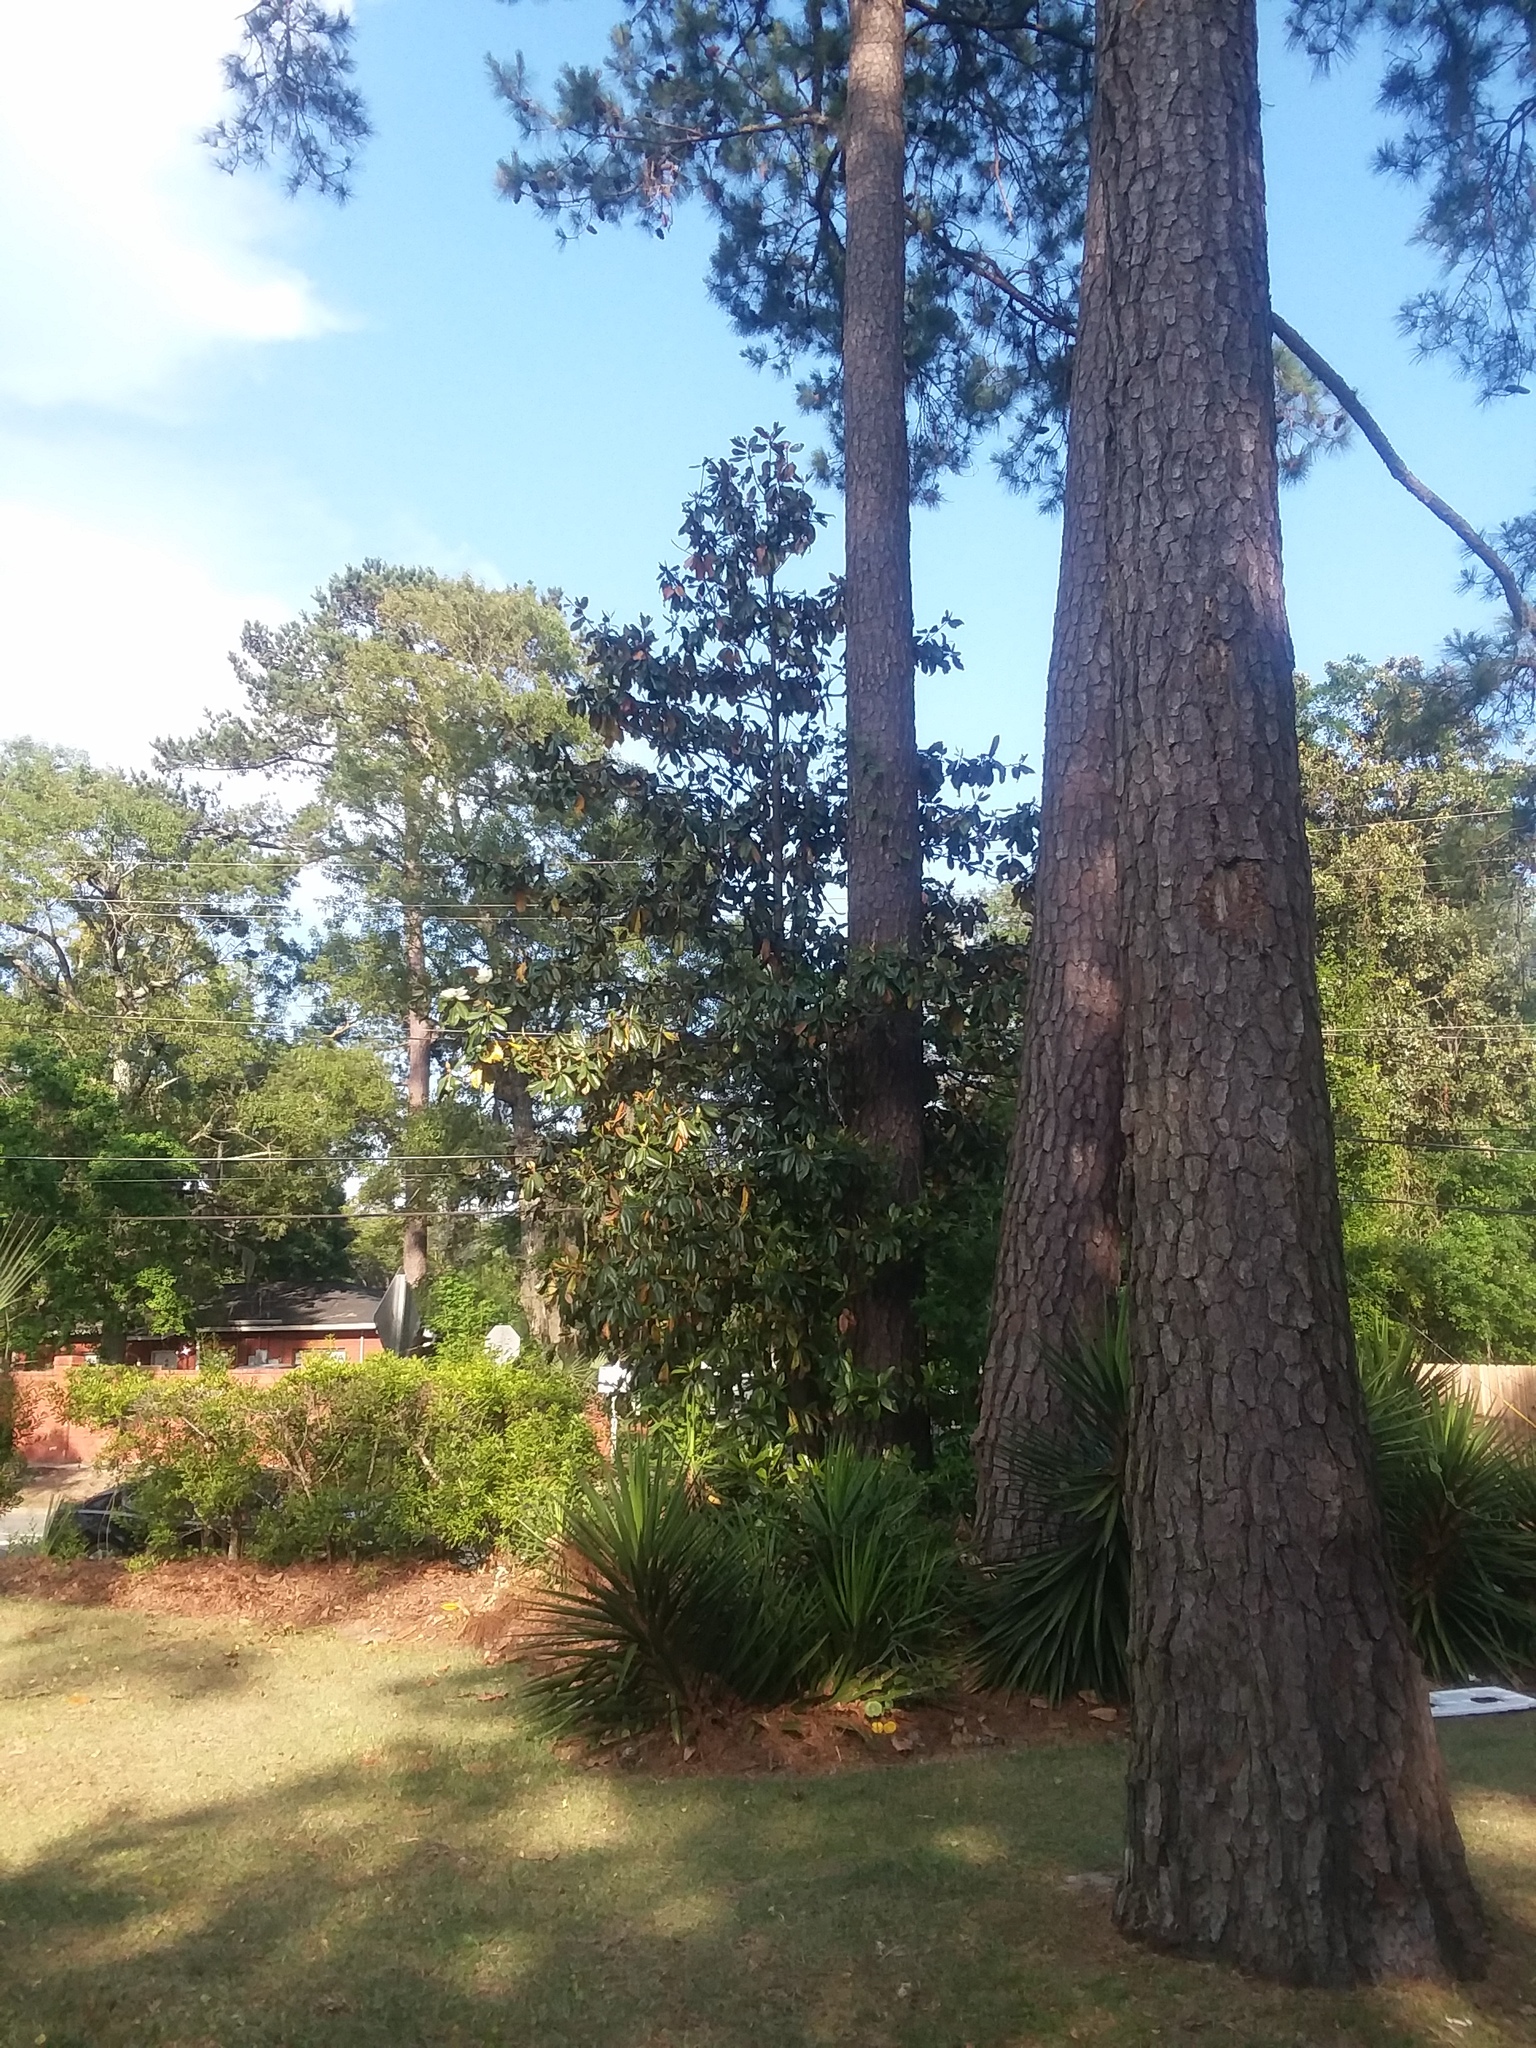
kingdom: Plantae
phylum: Tracheophyta
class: Magnoliopsida
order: Magnoliales
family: Magnoliaceae
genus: Magnolia
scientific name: Magnolia grandiflora
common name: Southern magnolia
